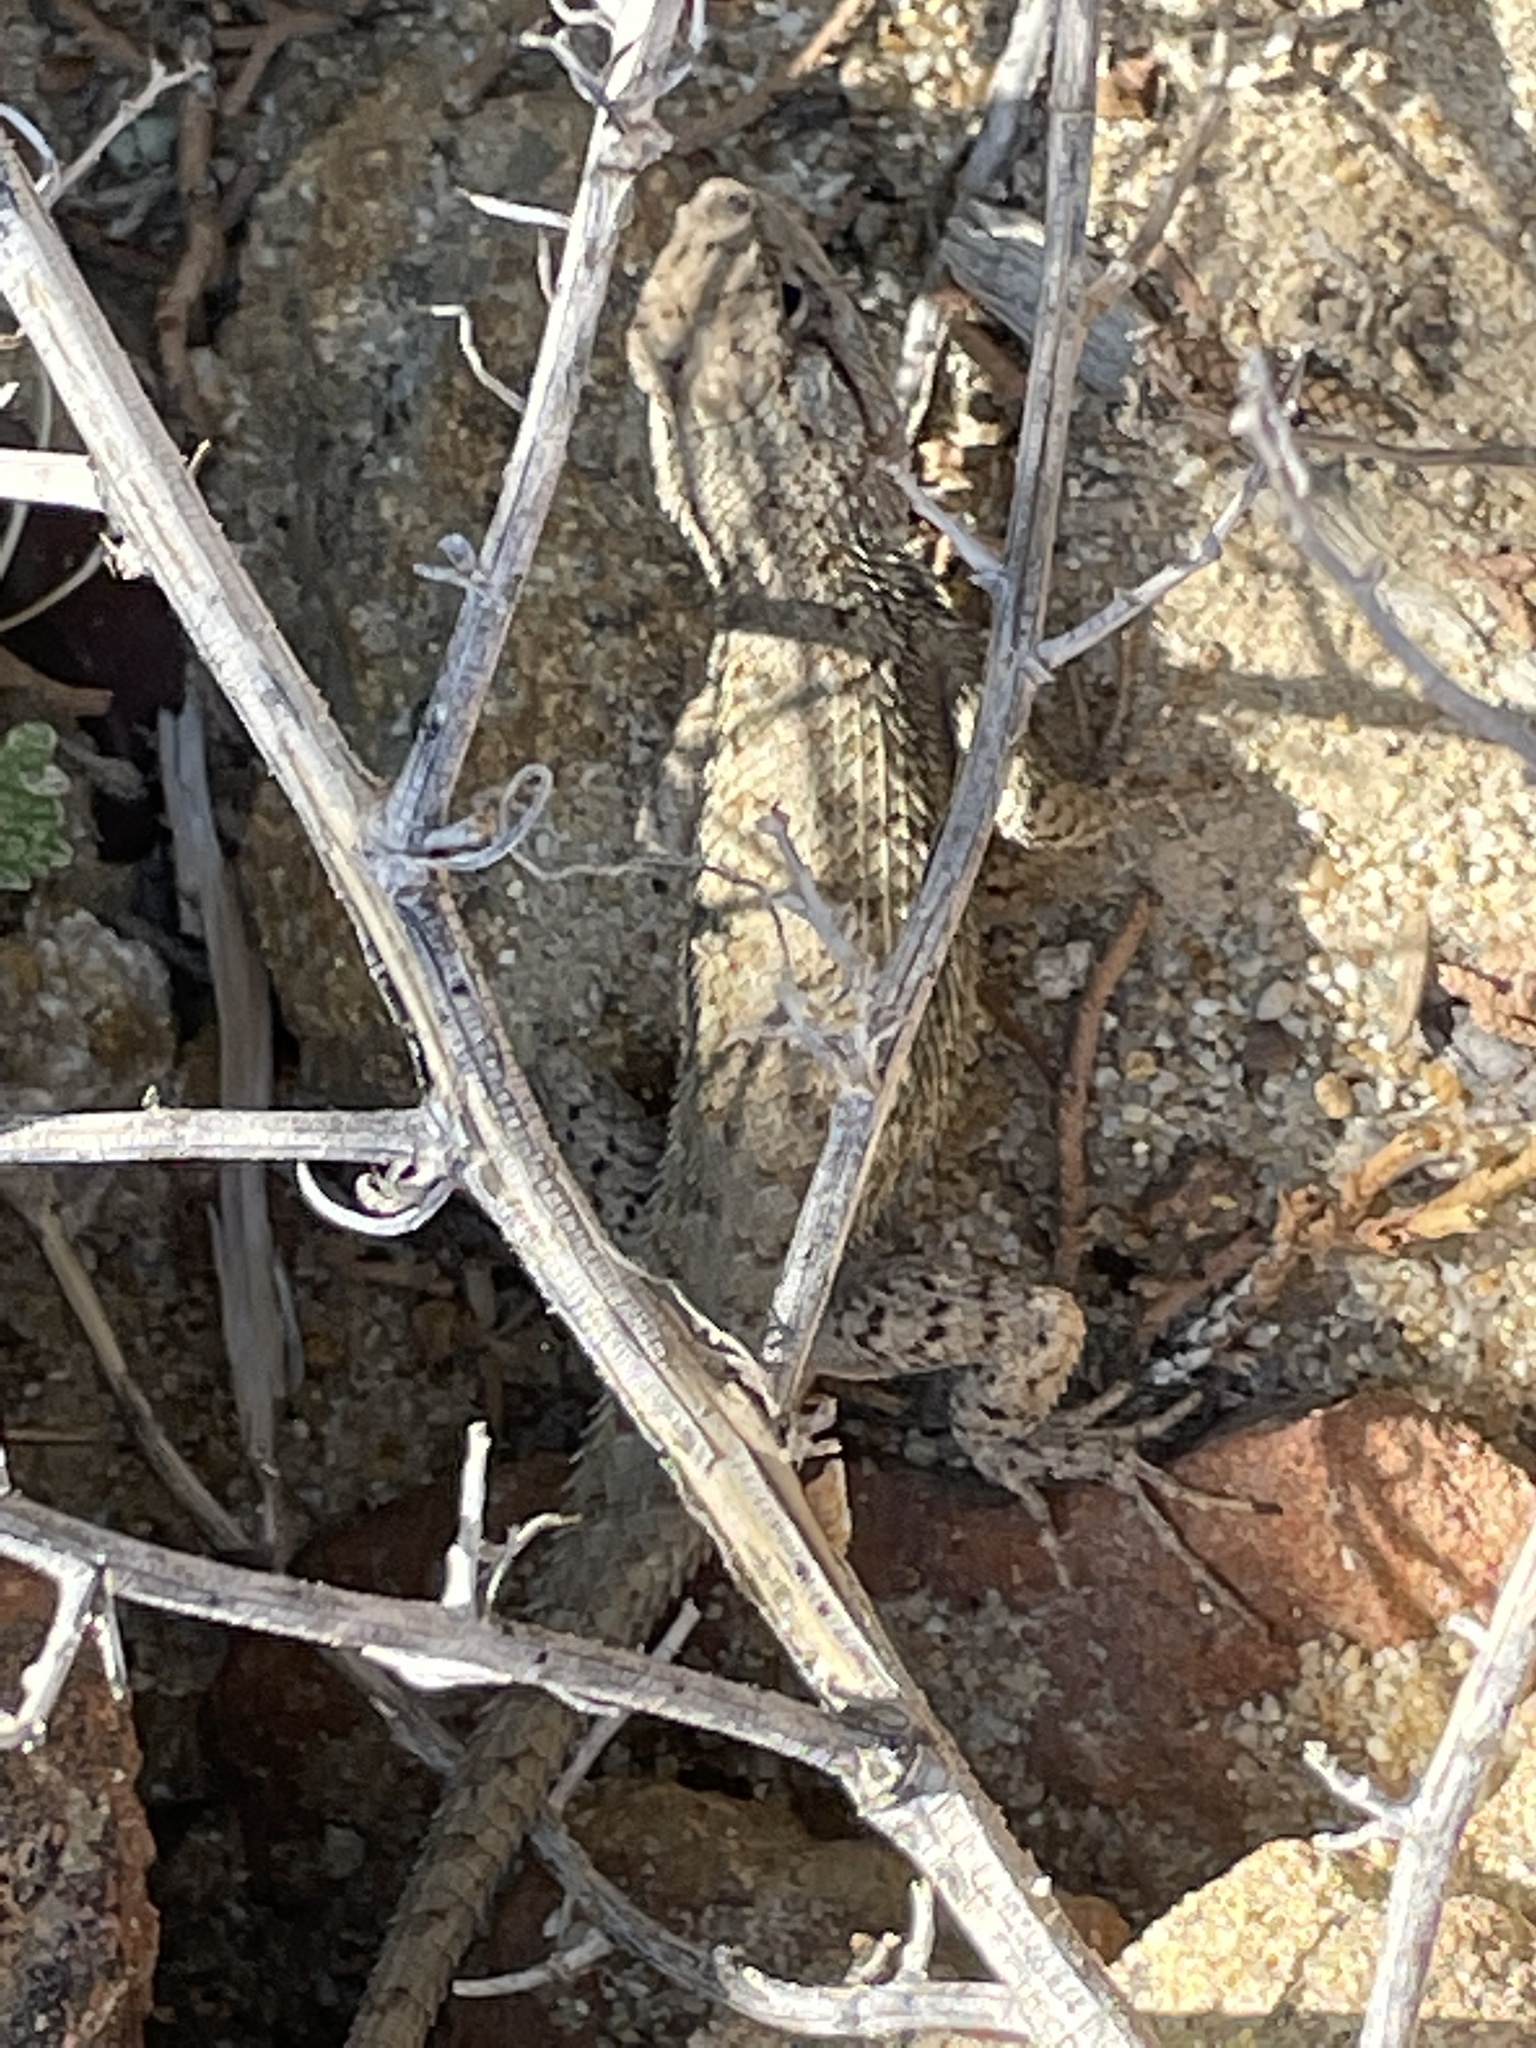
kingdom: Animalia
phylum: Chordata
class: Squamata
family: Phrynosomatidae
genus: Sceloporus
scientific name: Sceloporus tristichus
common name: Plateau fence lizard
